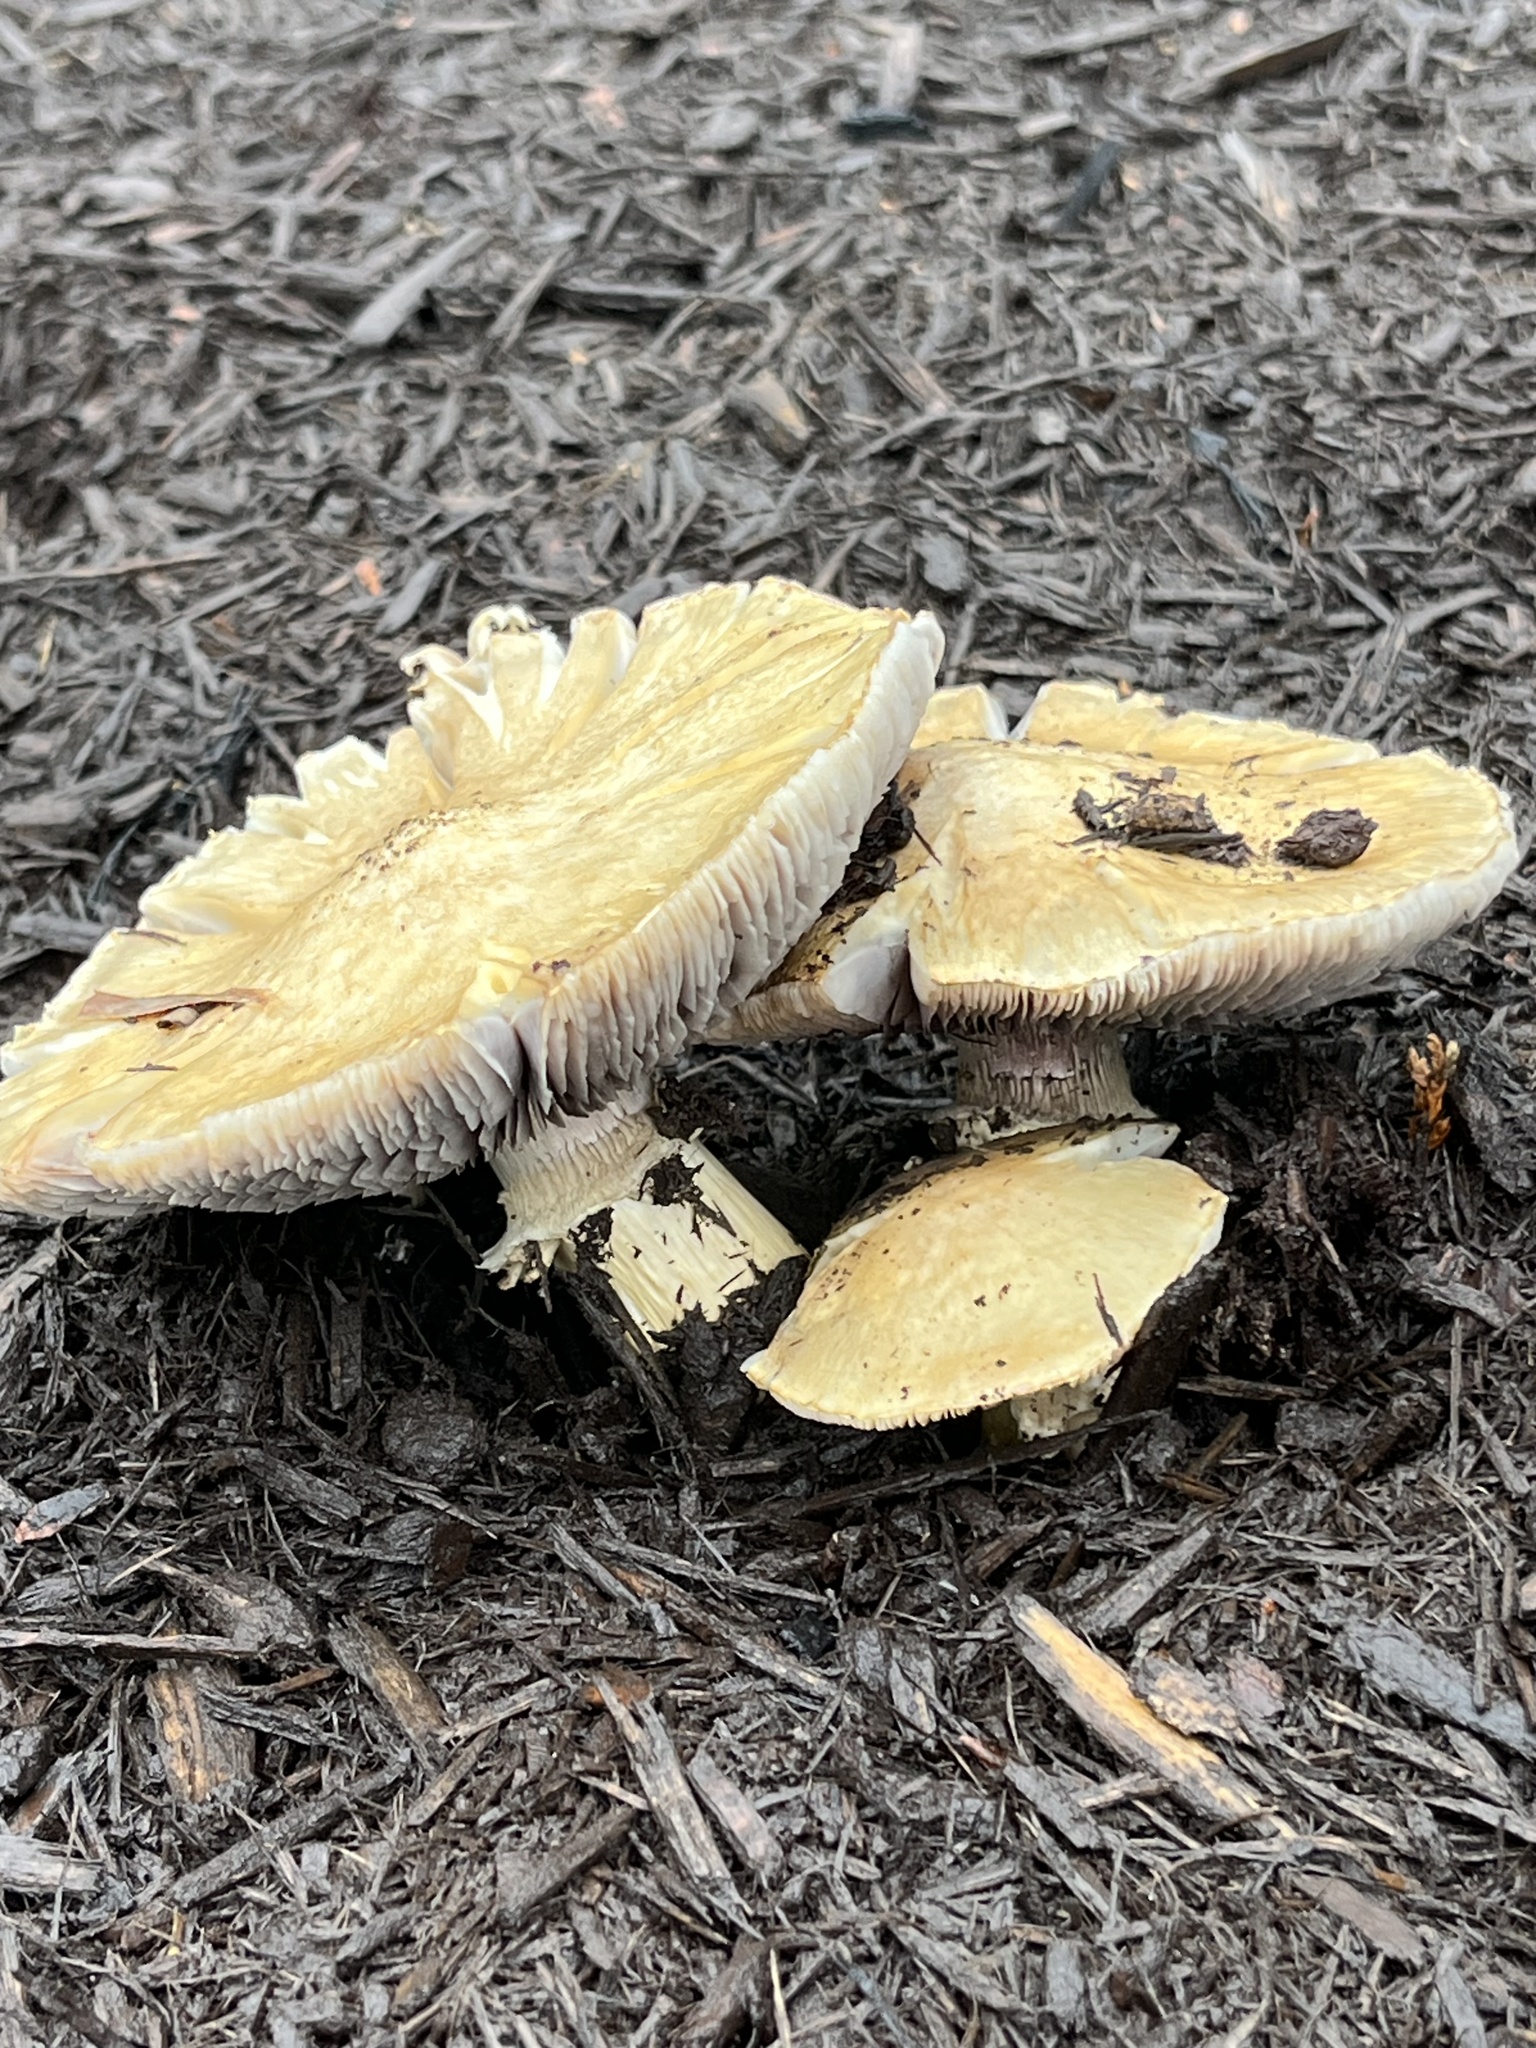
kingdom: Fungi
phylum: Basidiomycota
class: Agaricomycetes
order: Agaricales
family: Strophariaceae
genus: Stropharia
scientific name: Stropharia rugosoannulata
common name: Wine roundhead
